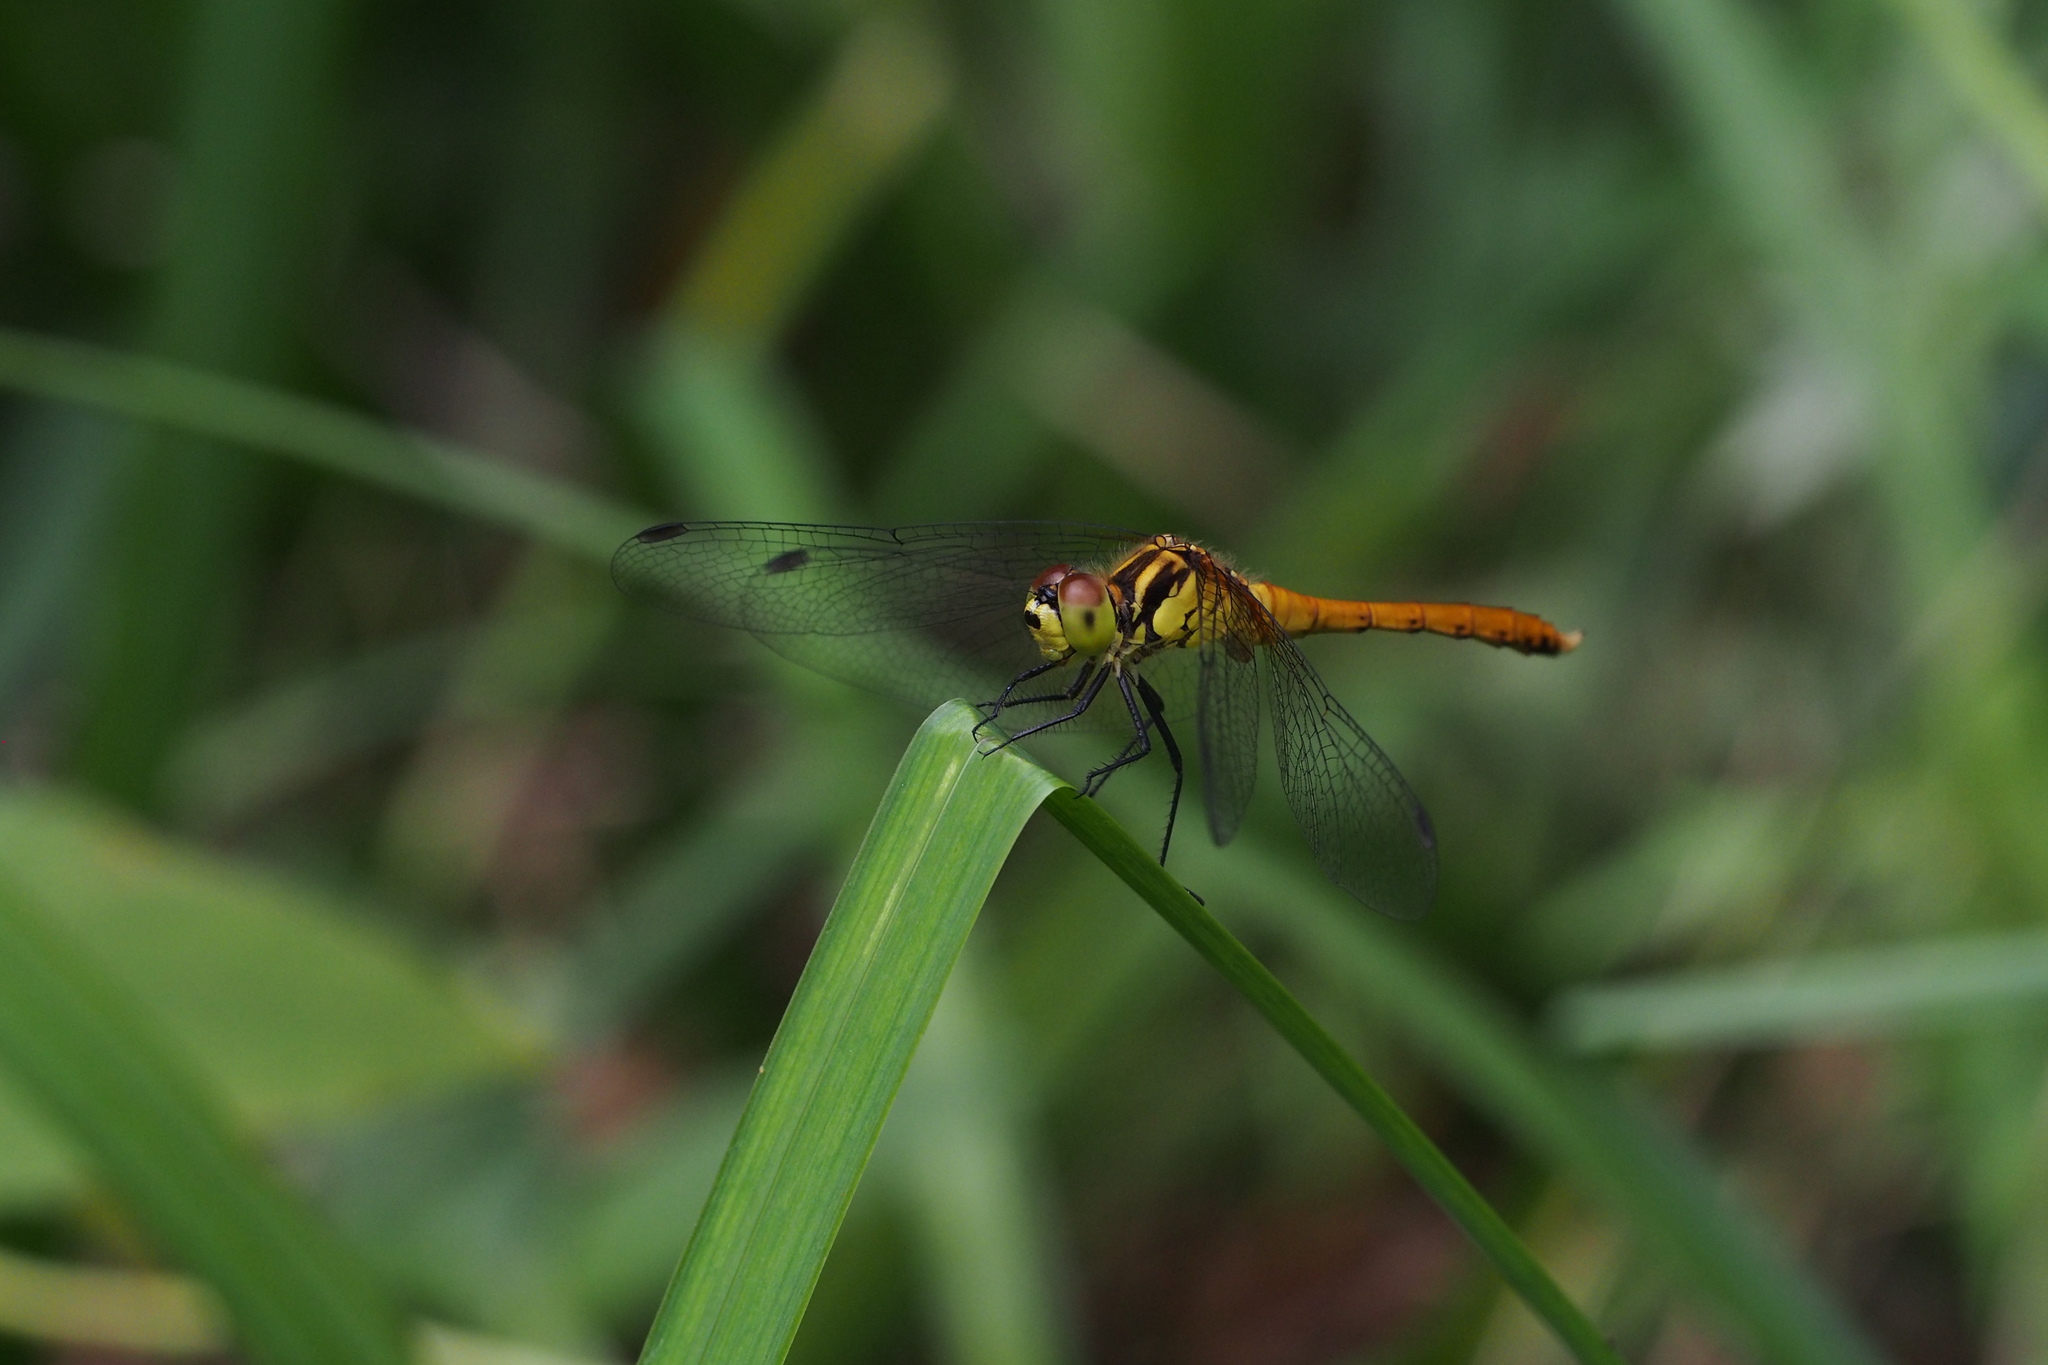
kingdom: Animalia
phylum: Arthropoda
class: Insecta
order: Odonata
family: Libellulidae
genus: Sympetrum
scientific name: Sympetrum eroticum
